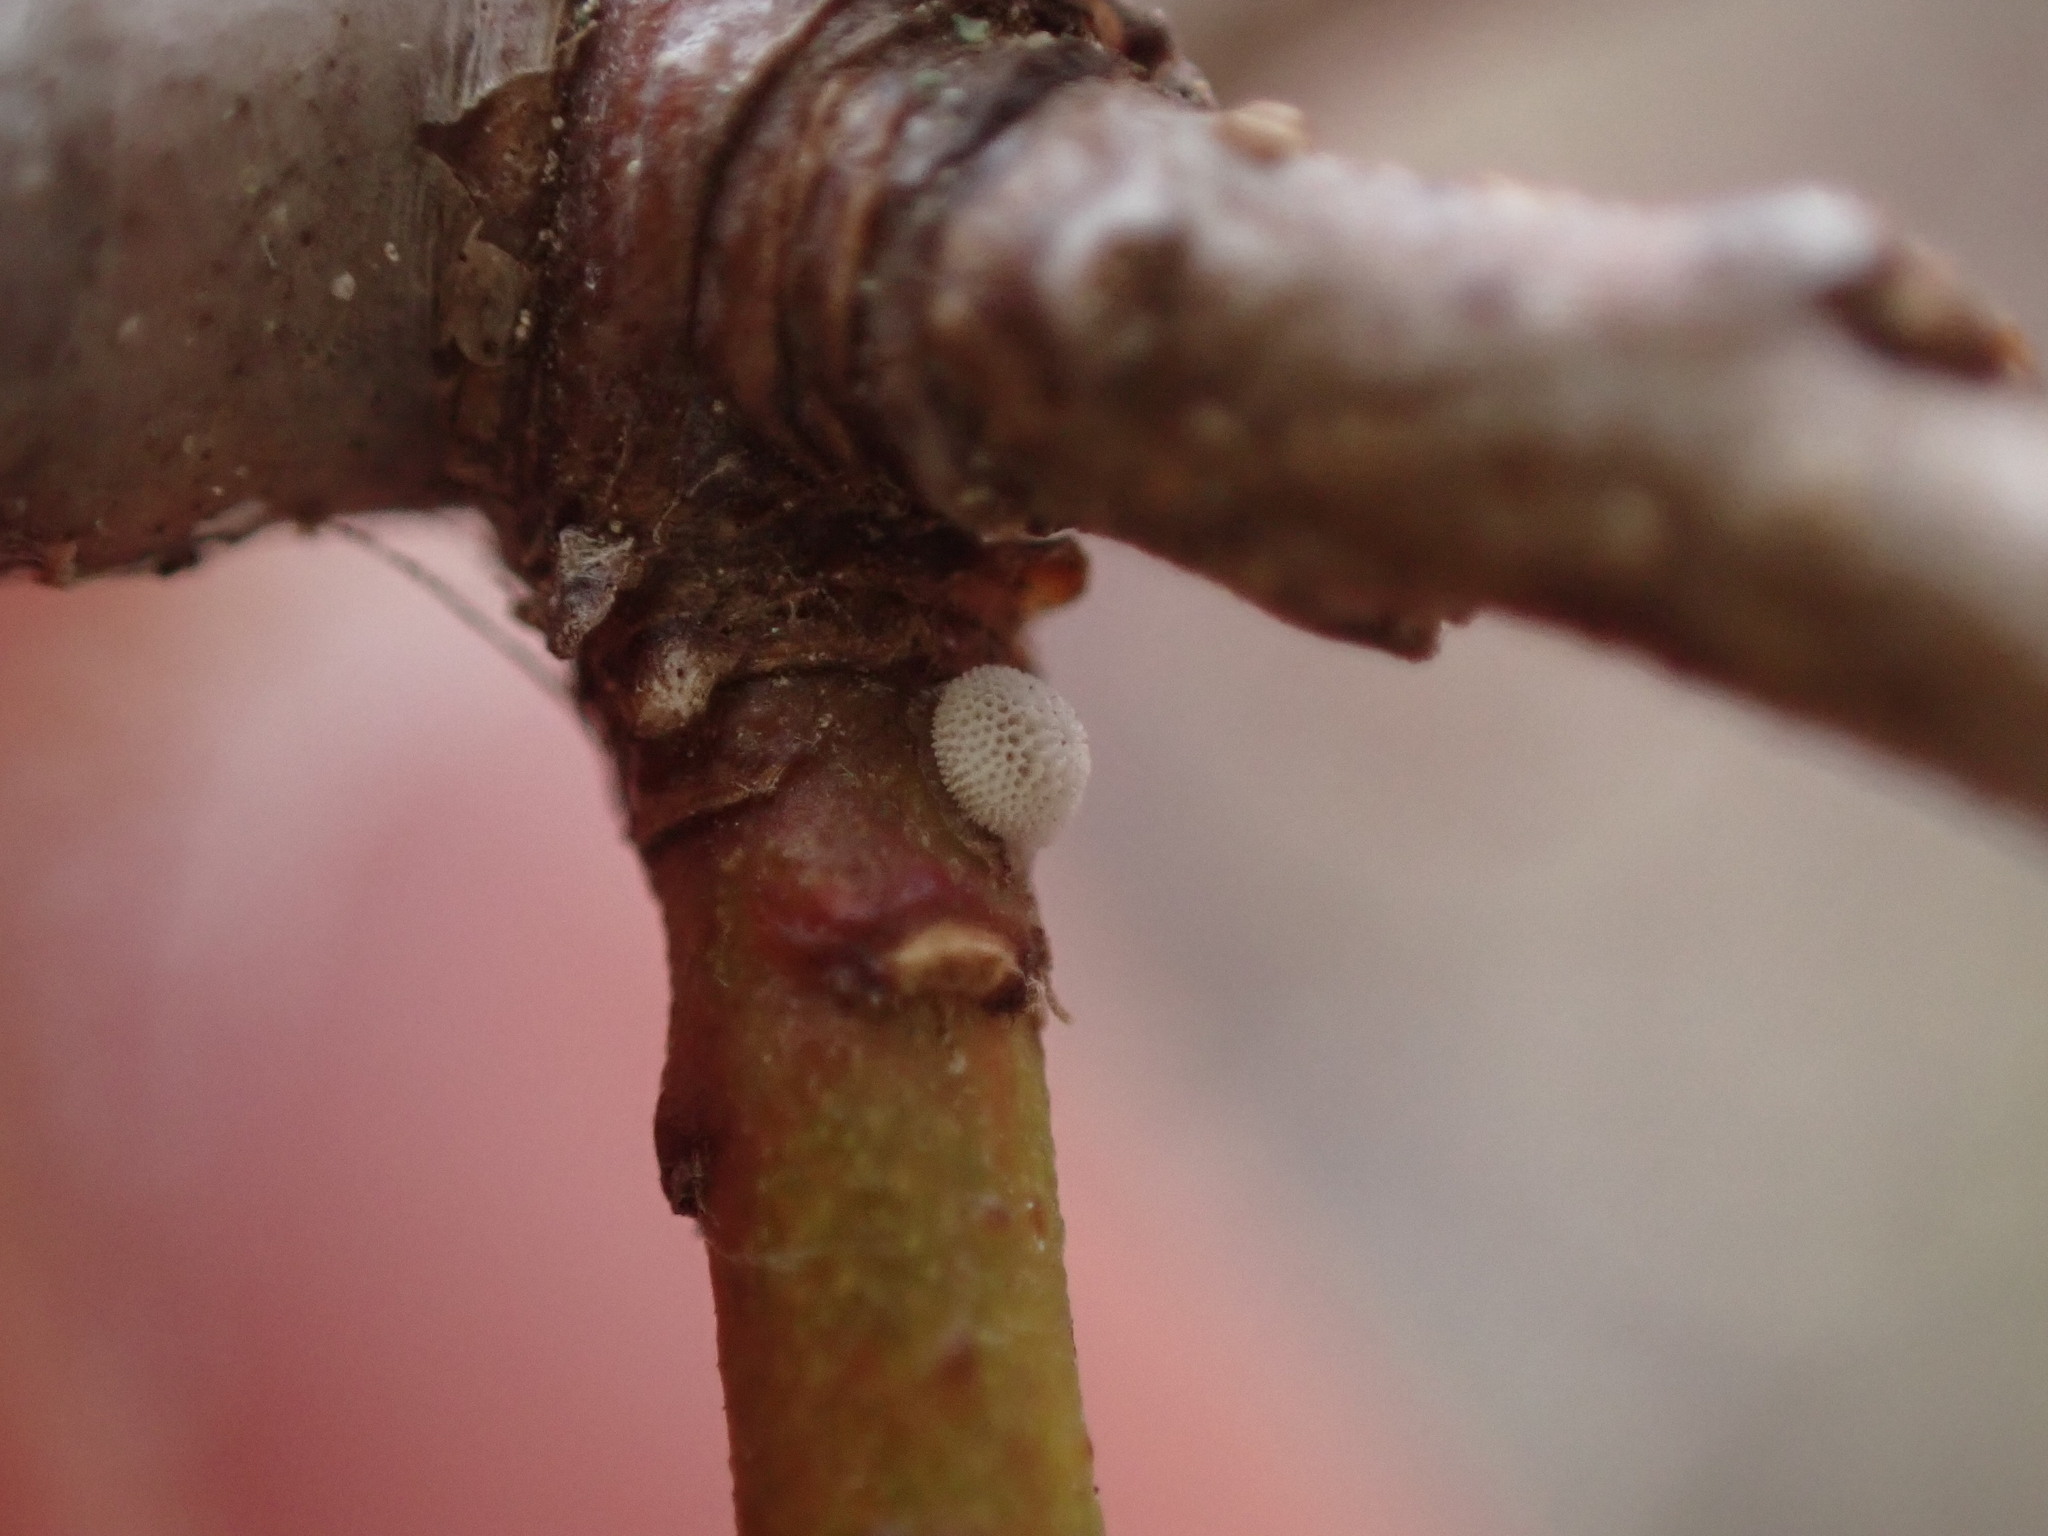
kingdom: Animalia
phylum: Arthropoda
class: Insecta
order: Lepidoptera
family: Lycaenidae
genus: Thecla
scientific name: Thecla betulae
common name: Brown hairstreak
